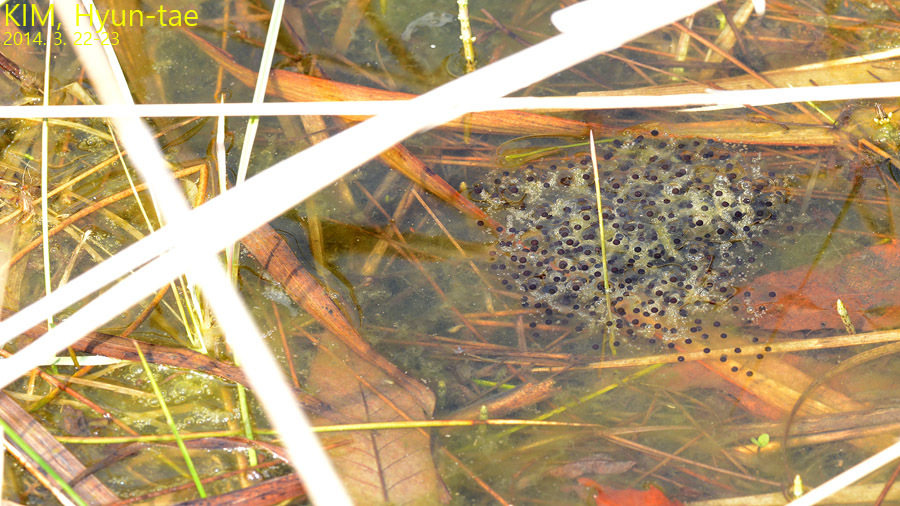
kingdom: Animalia
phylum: Chordata
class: Amphibia
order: Anura
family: Ranidae
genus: Rana
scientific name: Rana uenoi
